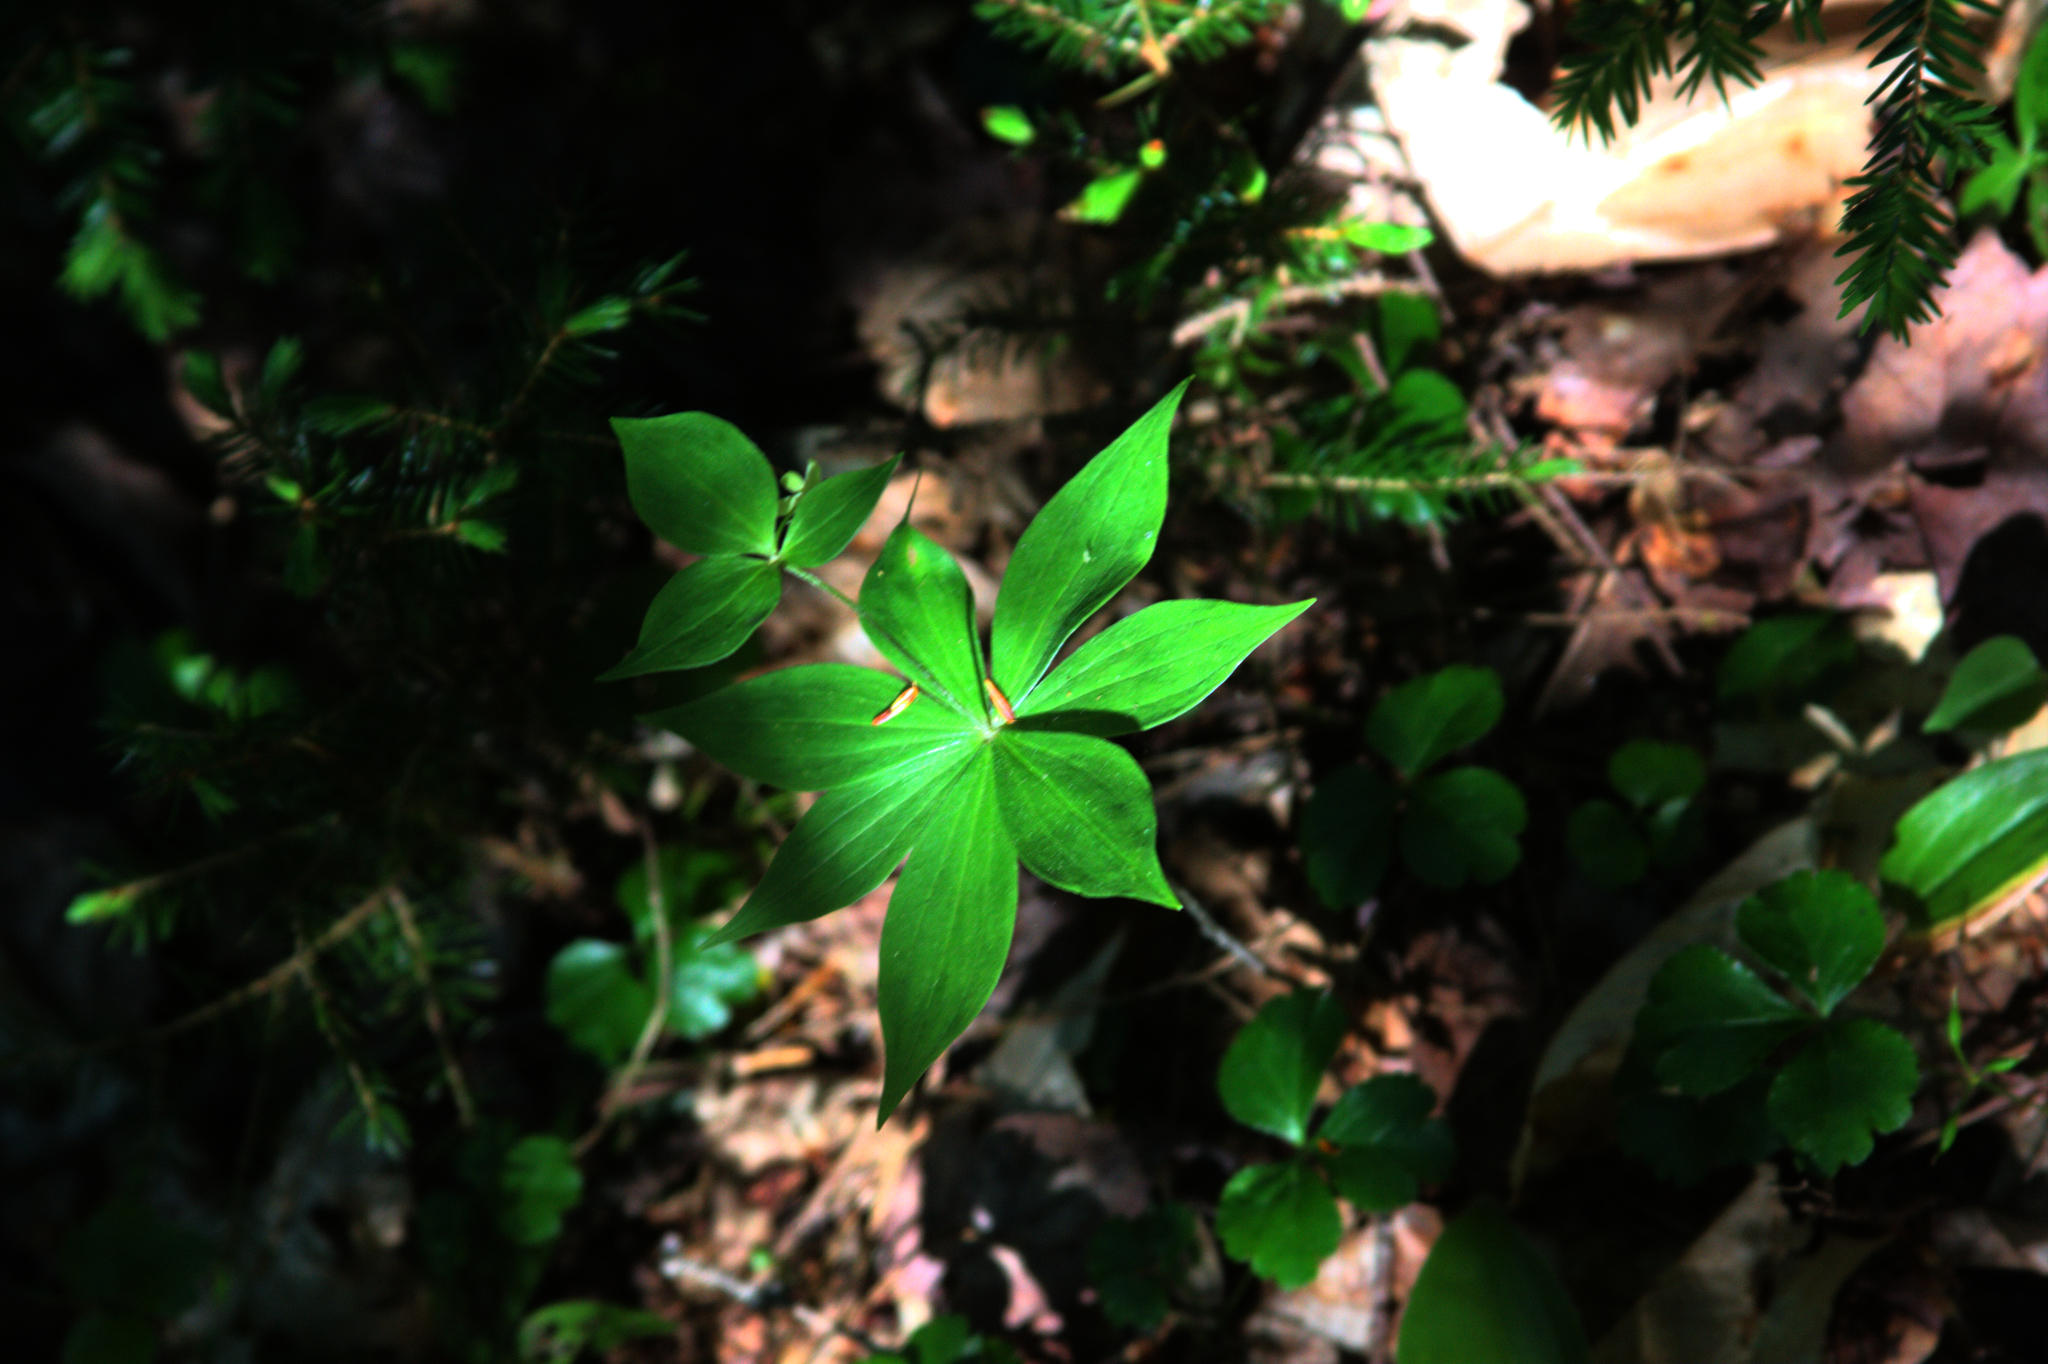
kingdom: Plantae
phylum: Tracheophyta
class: Liliopsida
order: Liliales
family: Liliaceae
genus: Medeola
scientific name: Medeola virginiana
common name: Indian cucumber-root
